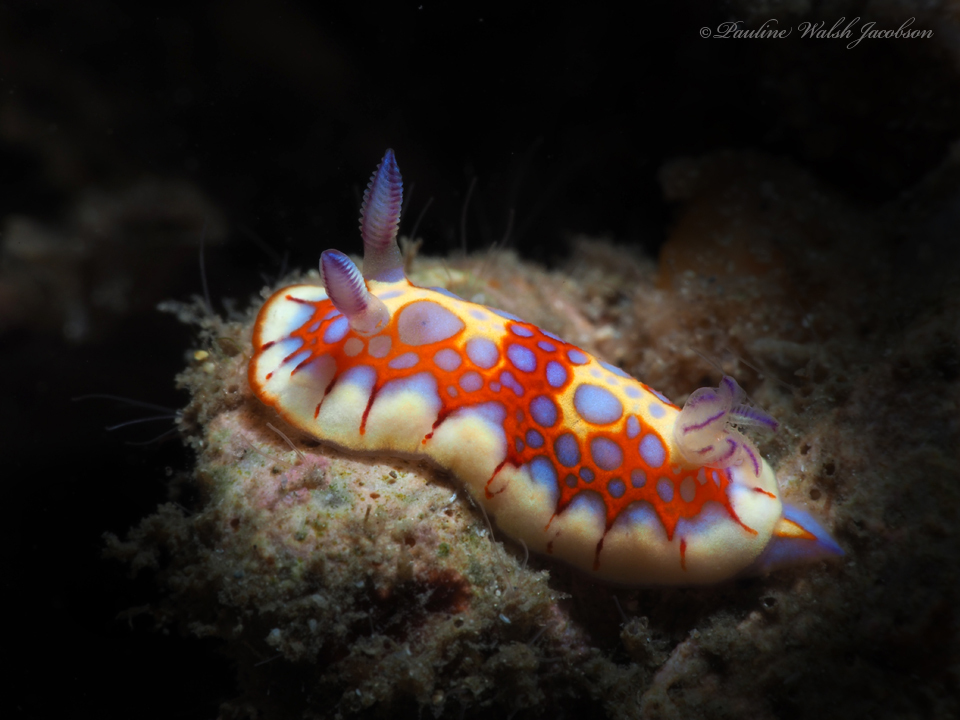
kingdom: Animalia
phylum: Mollusca
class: Gastropoda
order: Nudibranchia
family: Chromodorididae
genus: Felimida
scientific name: Felimida binza
